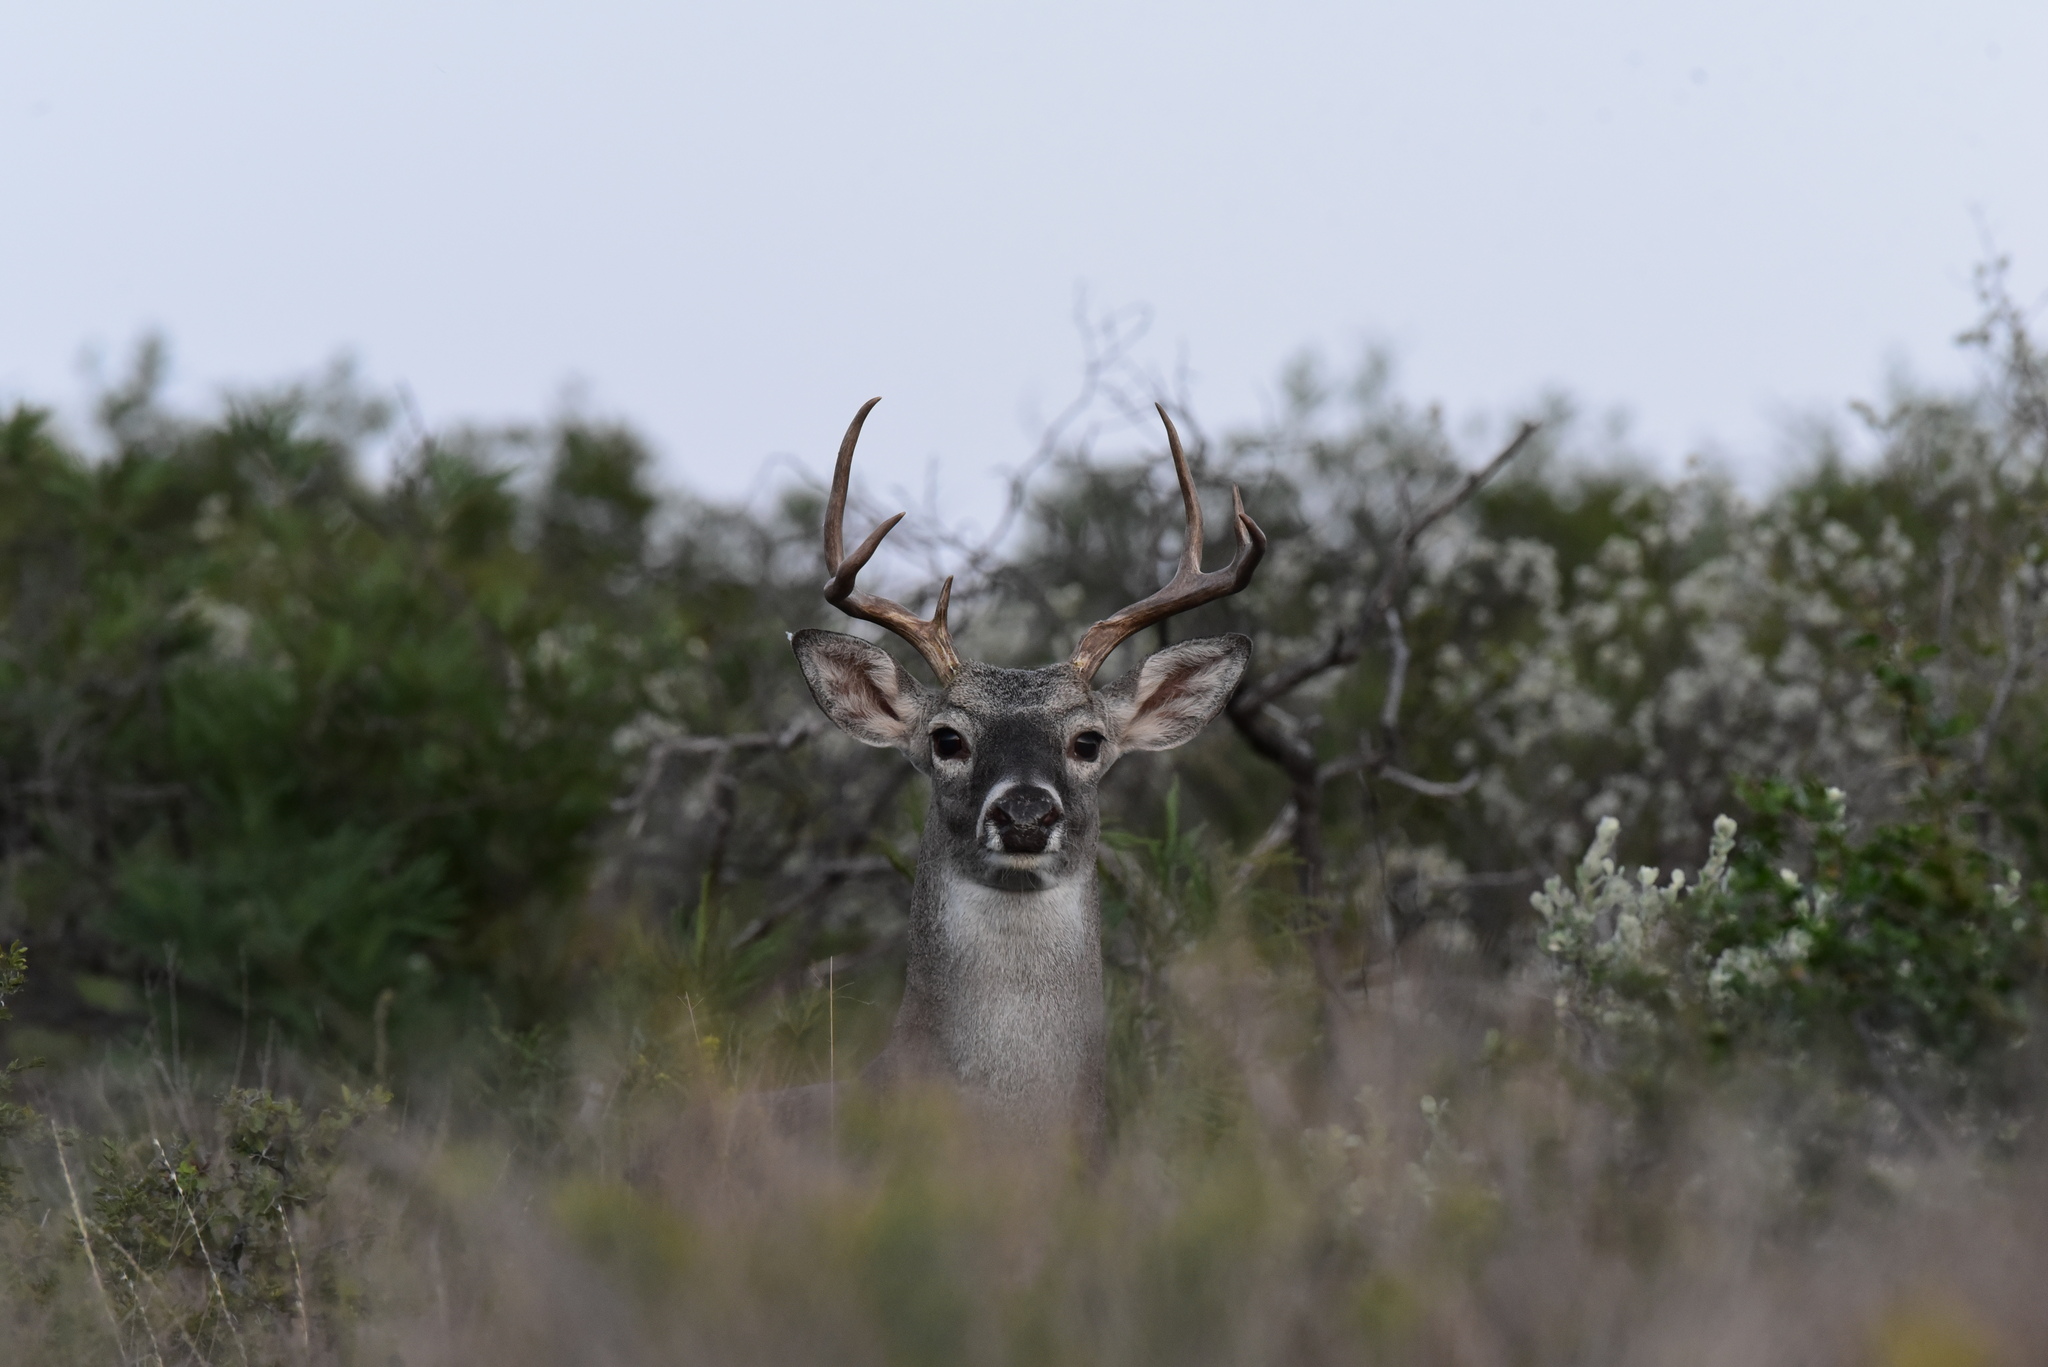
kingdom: Animalia
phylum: Chordata
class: Mammalia
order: Artiodactyla
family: Cervidae
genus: Odocoileus
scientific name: Odocoileus virginianus
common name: White-tailed deer
